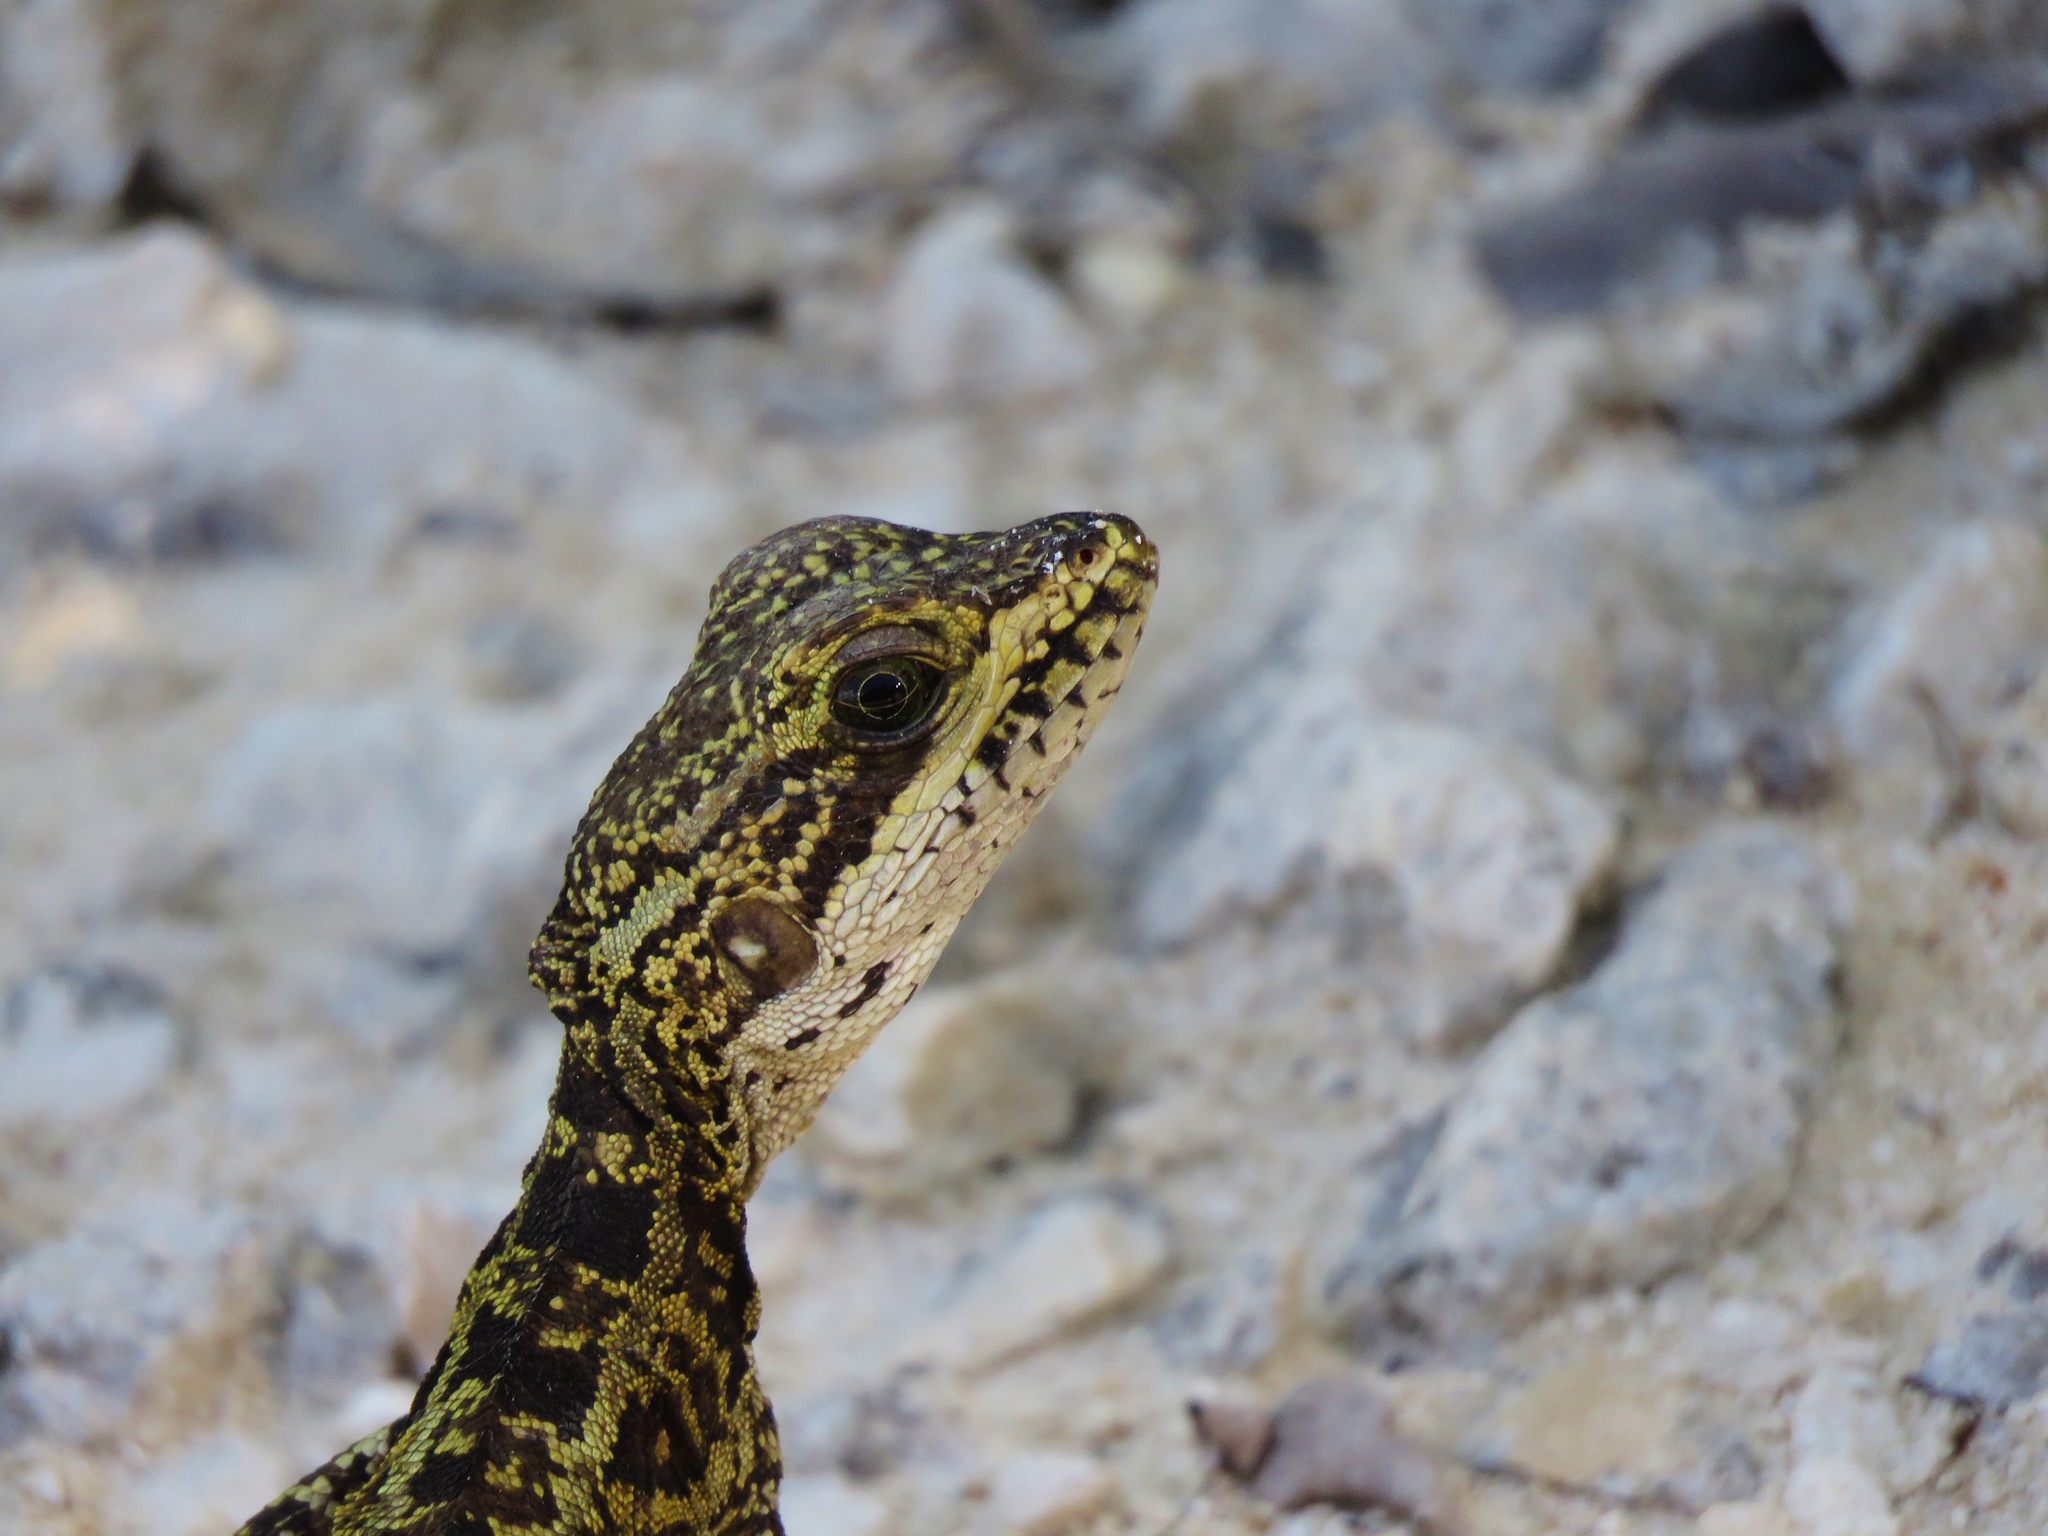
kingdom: Animalia
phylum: Chordata
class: Squamata
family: Corytophanidae
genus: Basiliscus
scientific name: Basiliscus vittatus
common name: Brown basilisk
